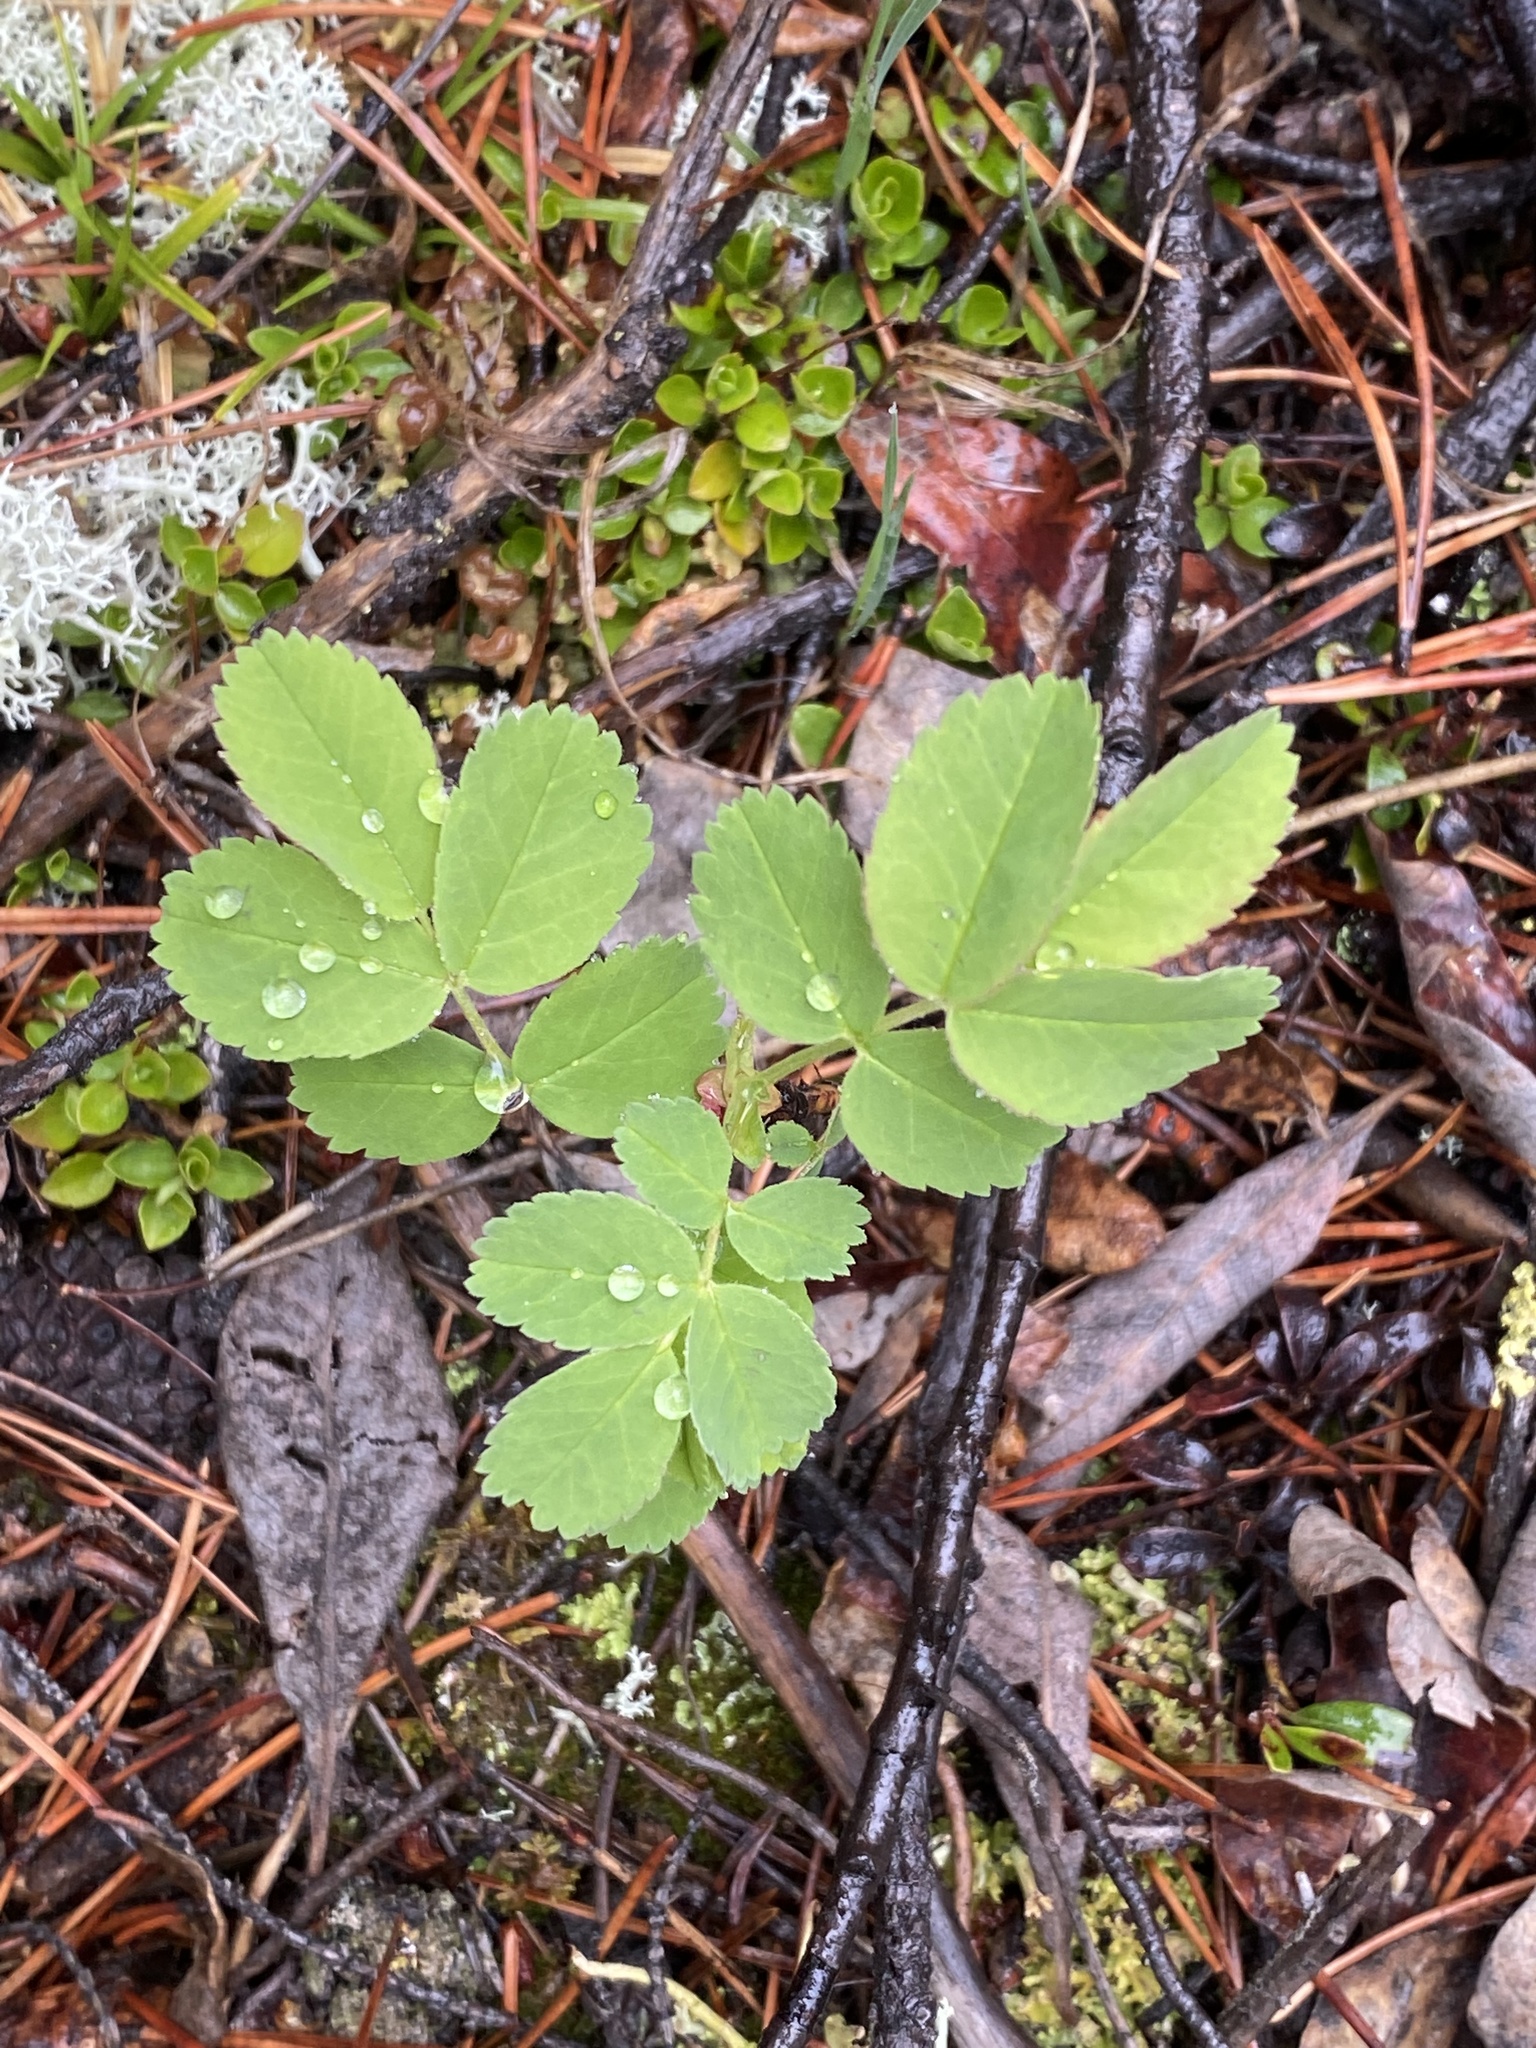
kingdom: Plantae
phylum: Tracheophyta
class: Magnoliopsida
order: Rosales
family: Rosaceae
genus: Rosa
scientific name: Rosa acicularis
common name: Prickly rose
